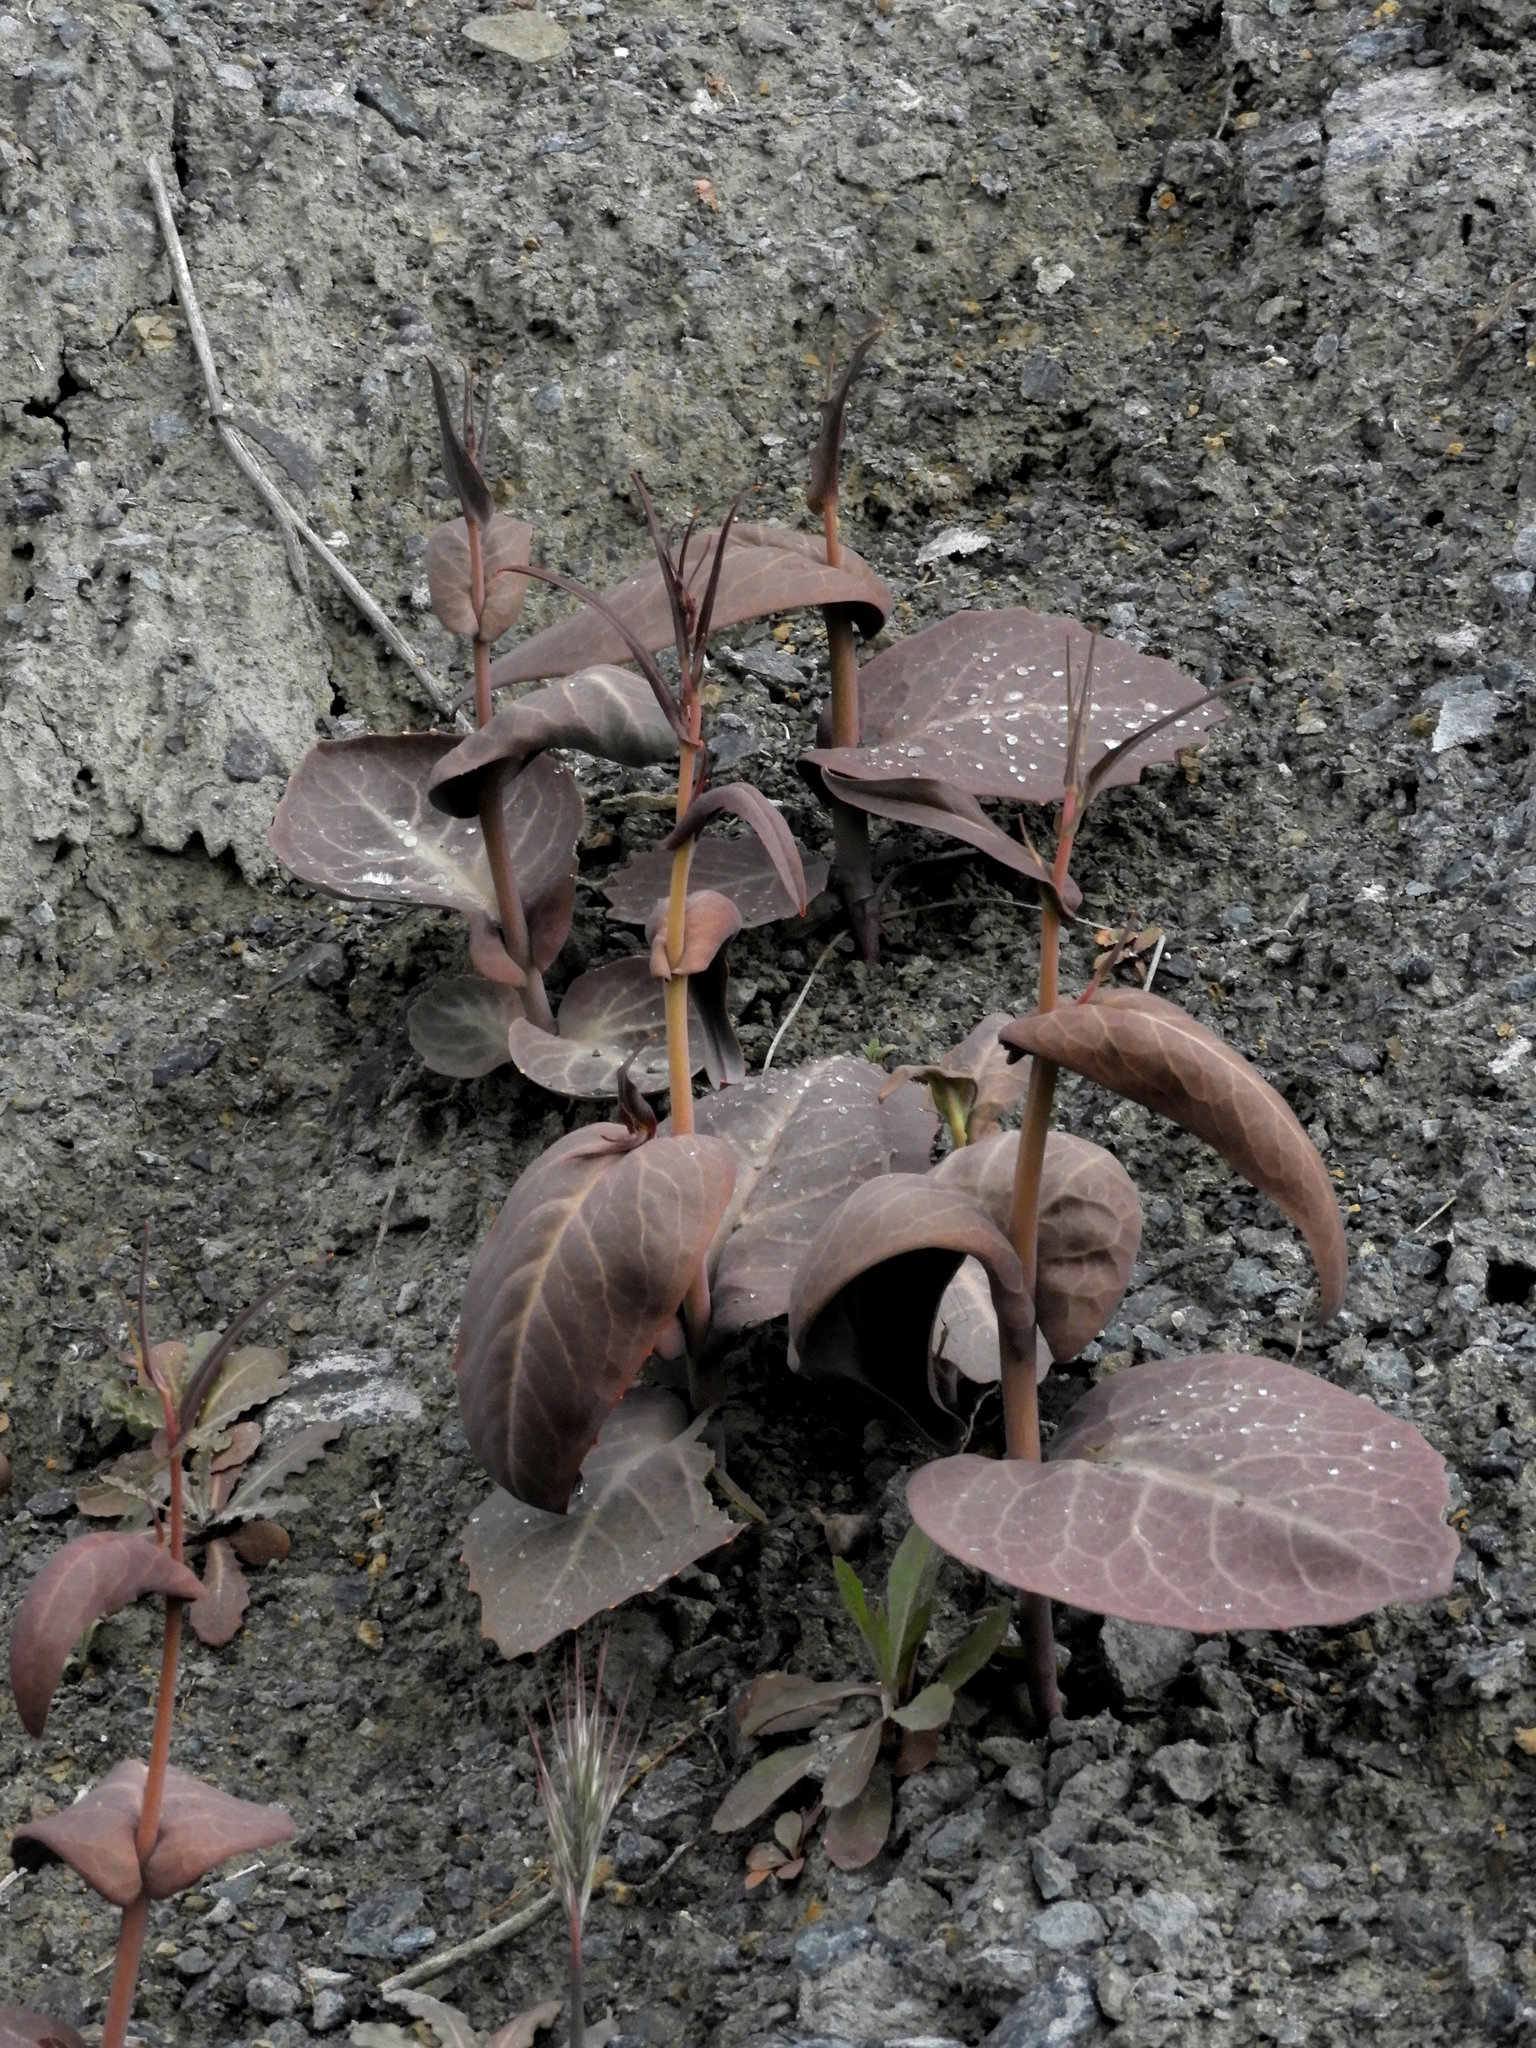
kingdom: Plantae
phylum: Tracheophyta
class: Magnoliopsida
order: Brassicales
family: Brassicaceae
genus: Streptanthus
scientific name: Streptanthus breweri
